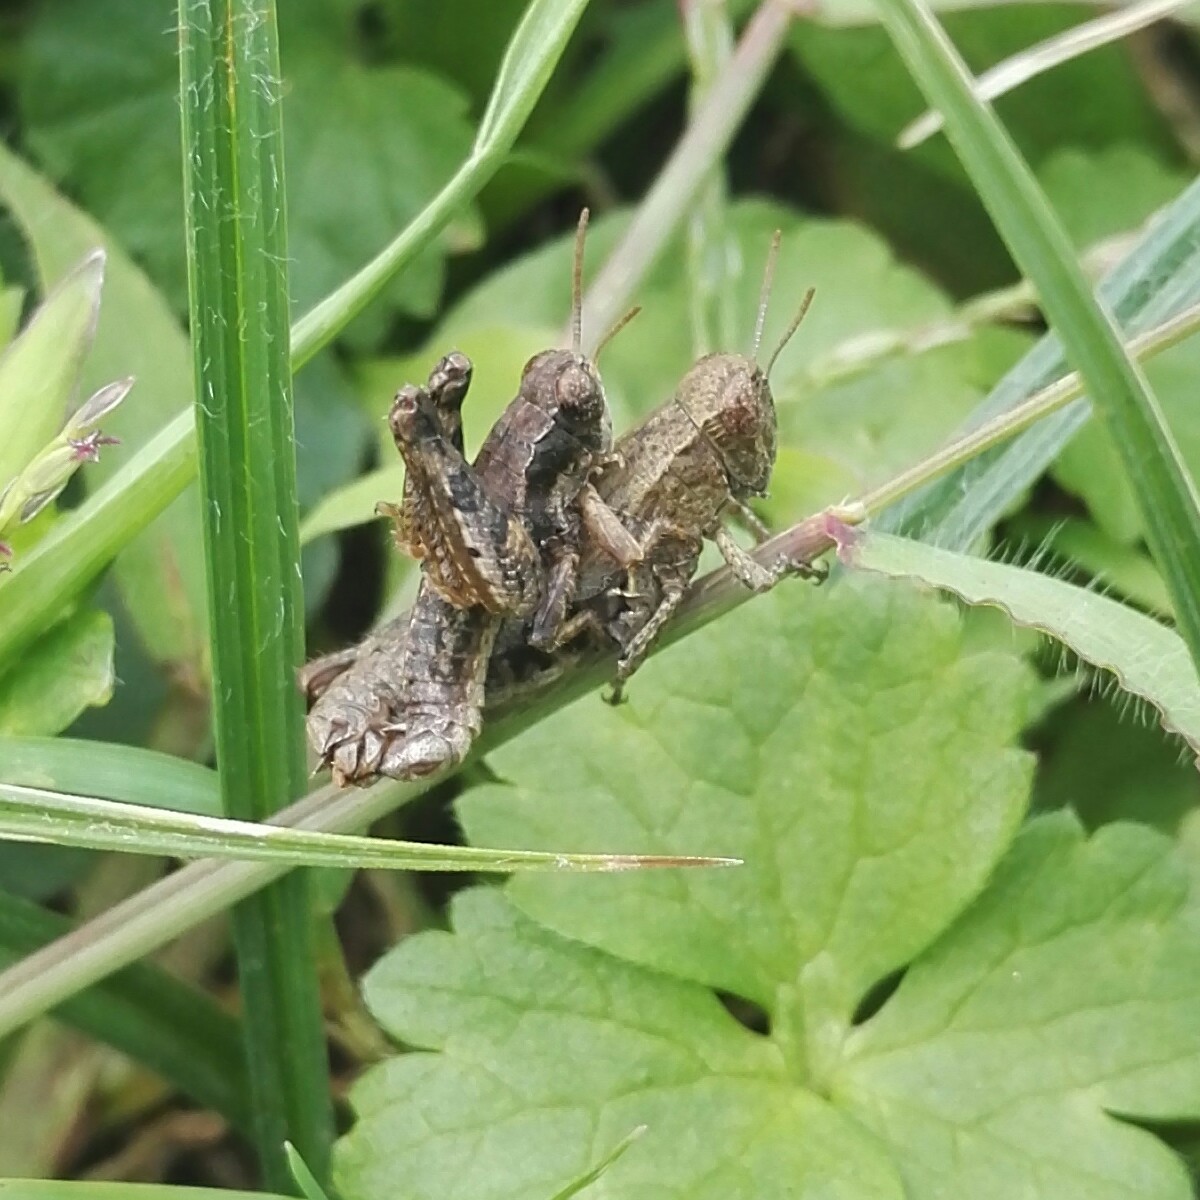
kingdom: Animalia
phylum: Arthropoda
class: Insecta
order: Orthoptera
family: Acrididae
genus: Pezotettix
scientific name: Pezotettix giornae
